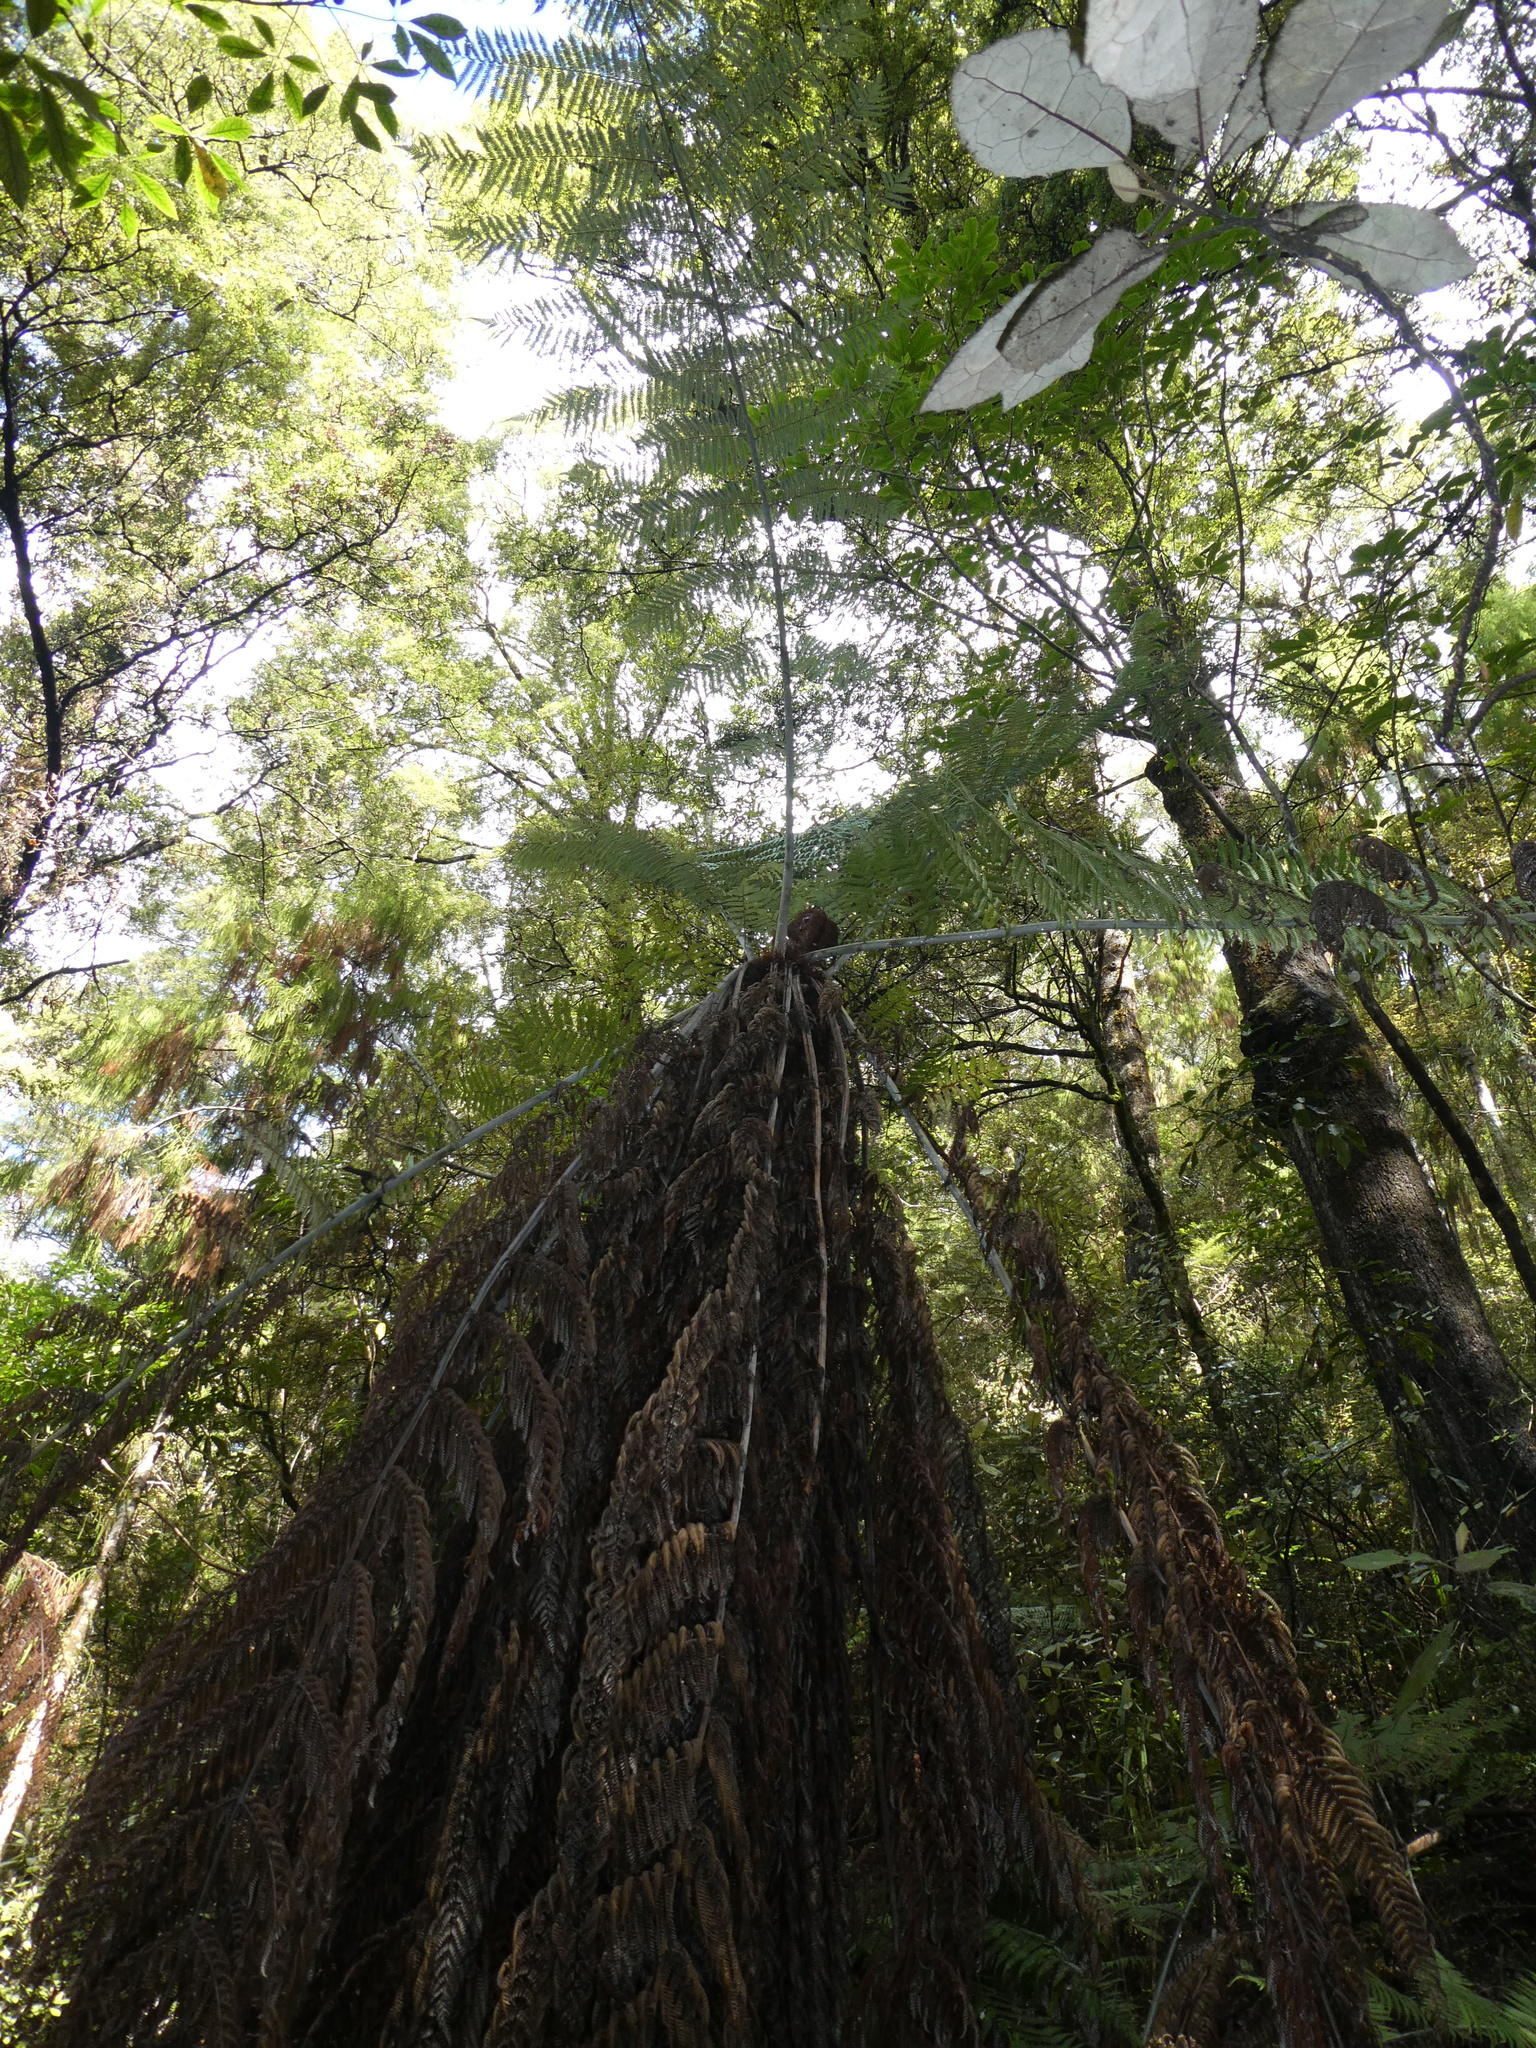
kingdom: Plantae
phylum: Tracheophyta
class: Polypodiopsida
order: Cyatheales
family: Cyatheaceae
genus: Alsophila
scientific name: Alsophila dealbata
